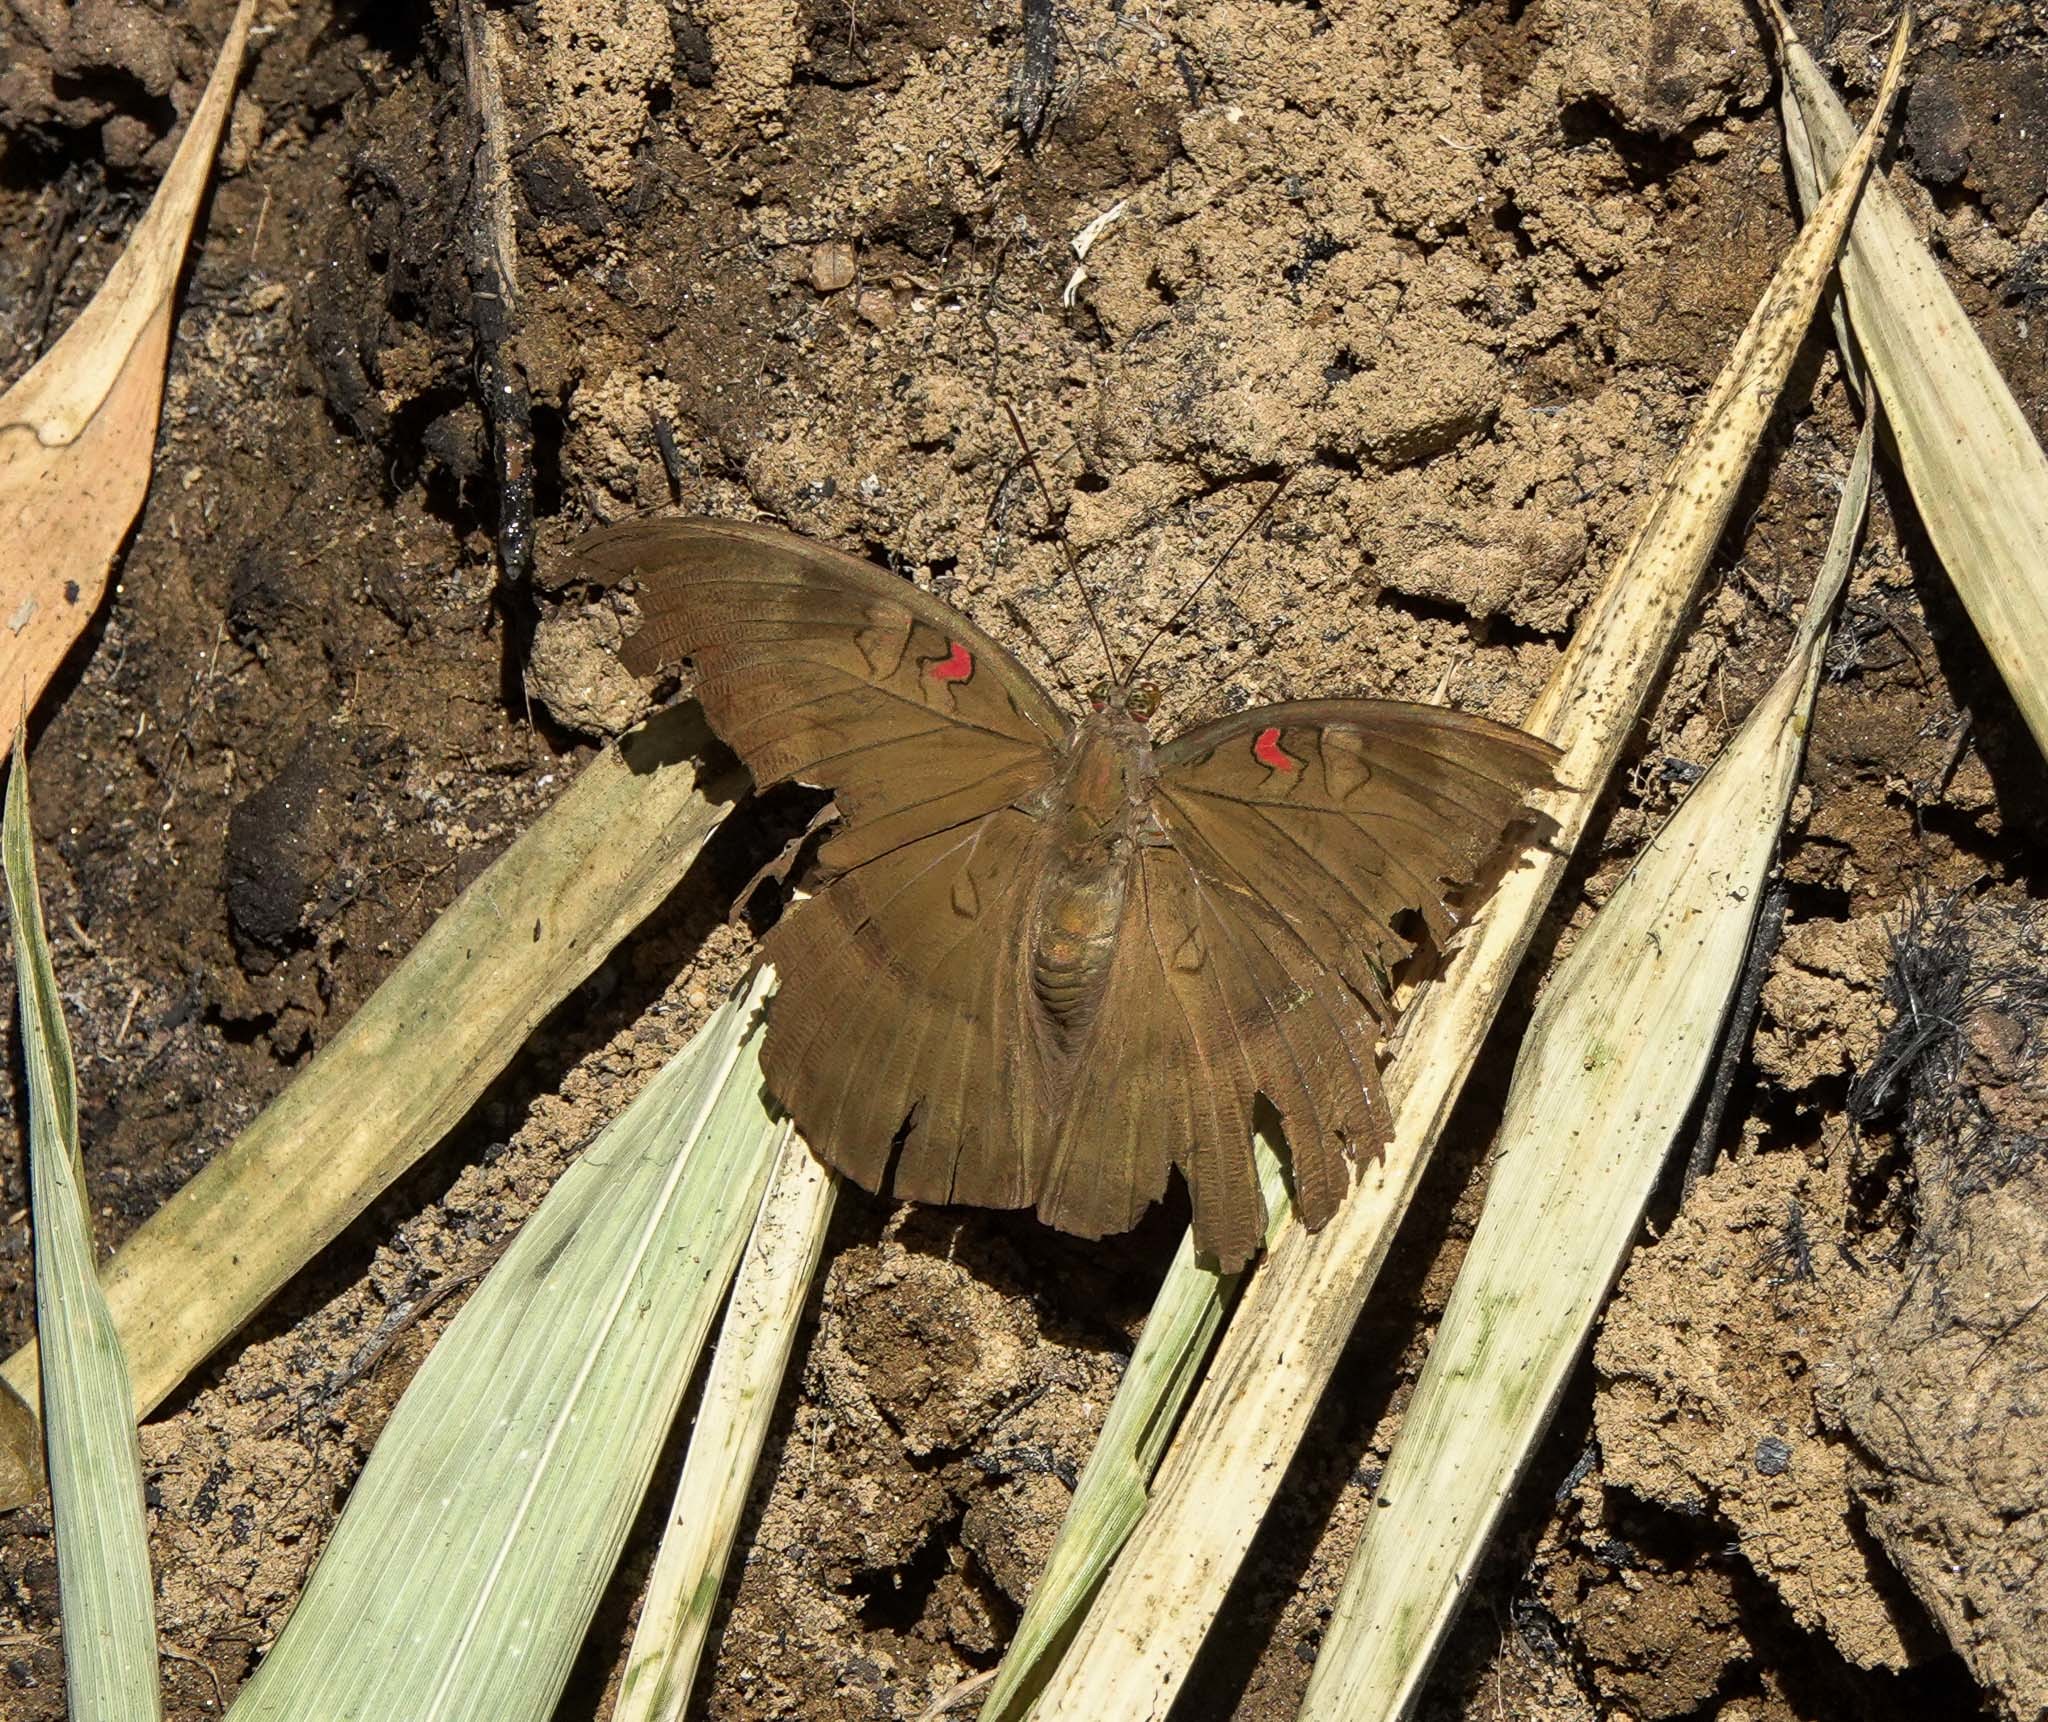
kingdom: Animalia
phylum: Arthropoda
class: Insecta
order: Lepidoptera
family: Nymphalidae
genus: Euthalia
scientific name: Euthalia Dophla evelina
